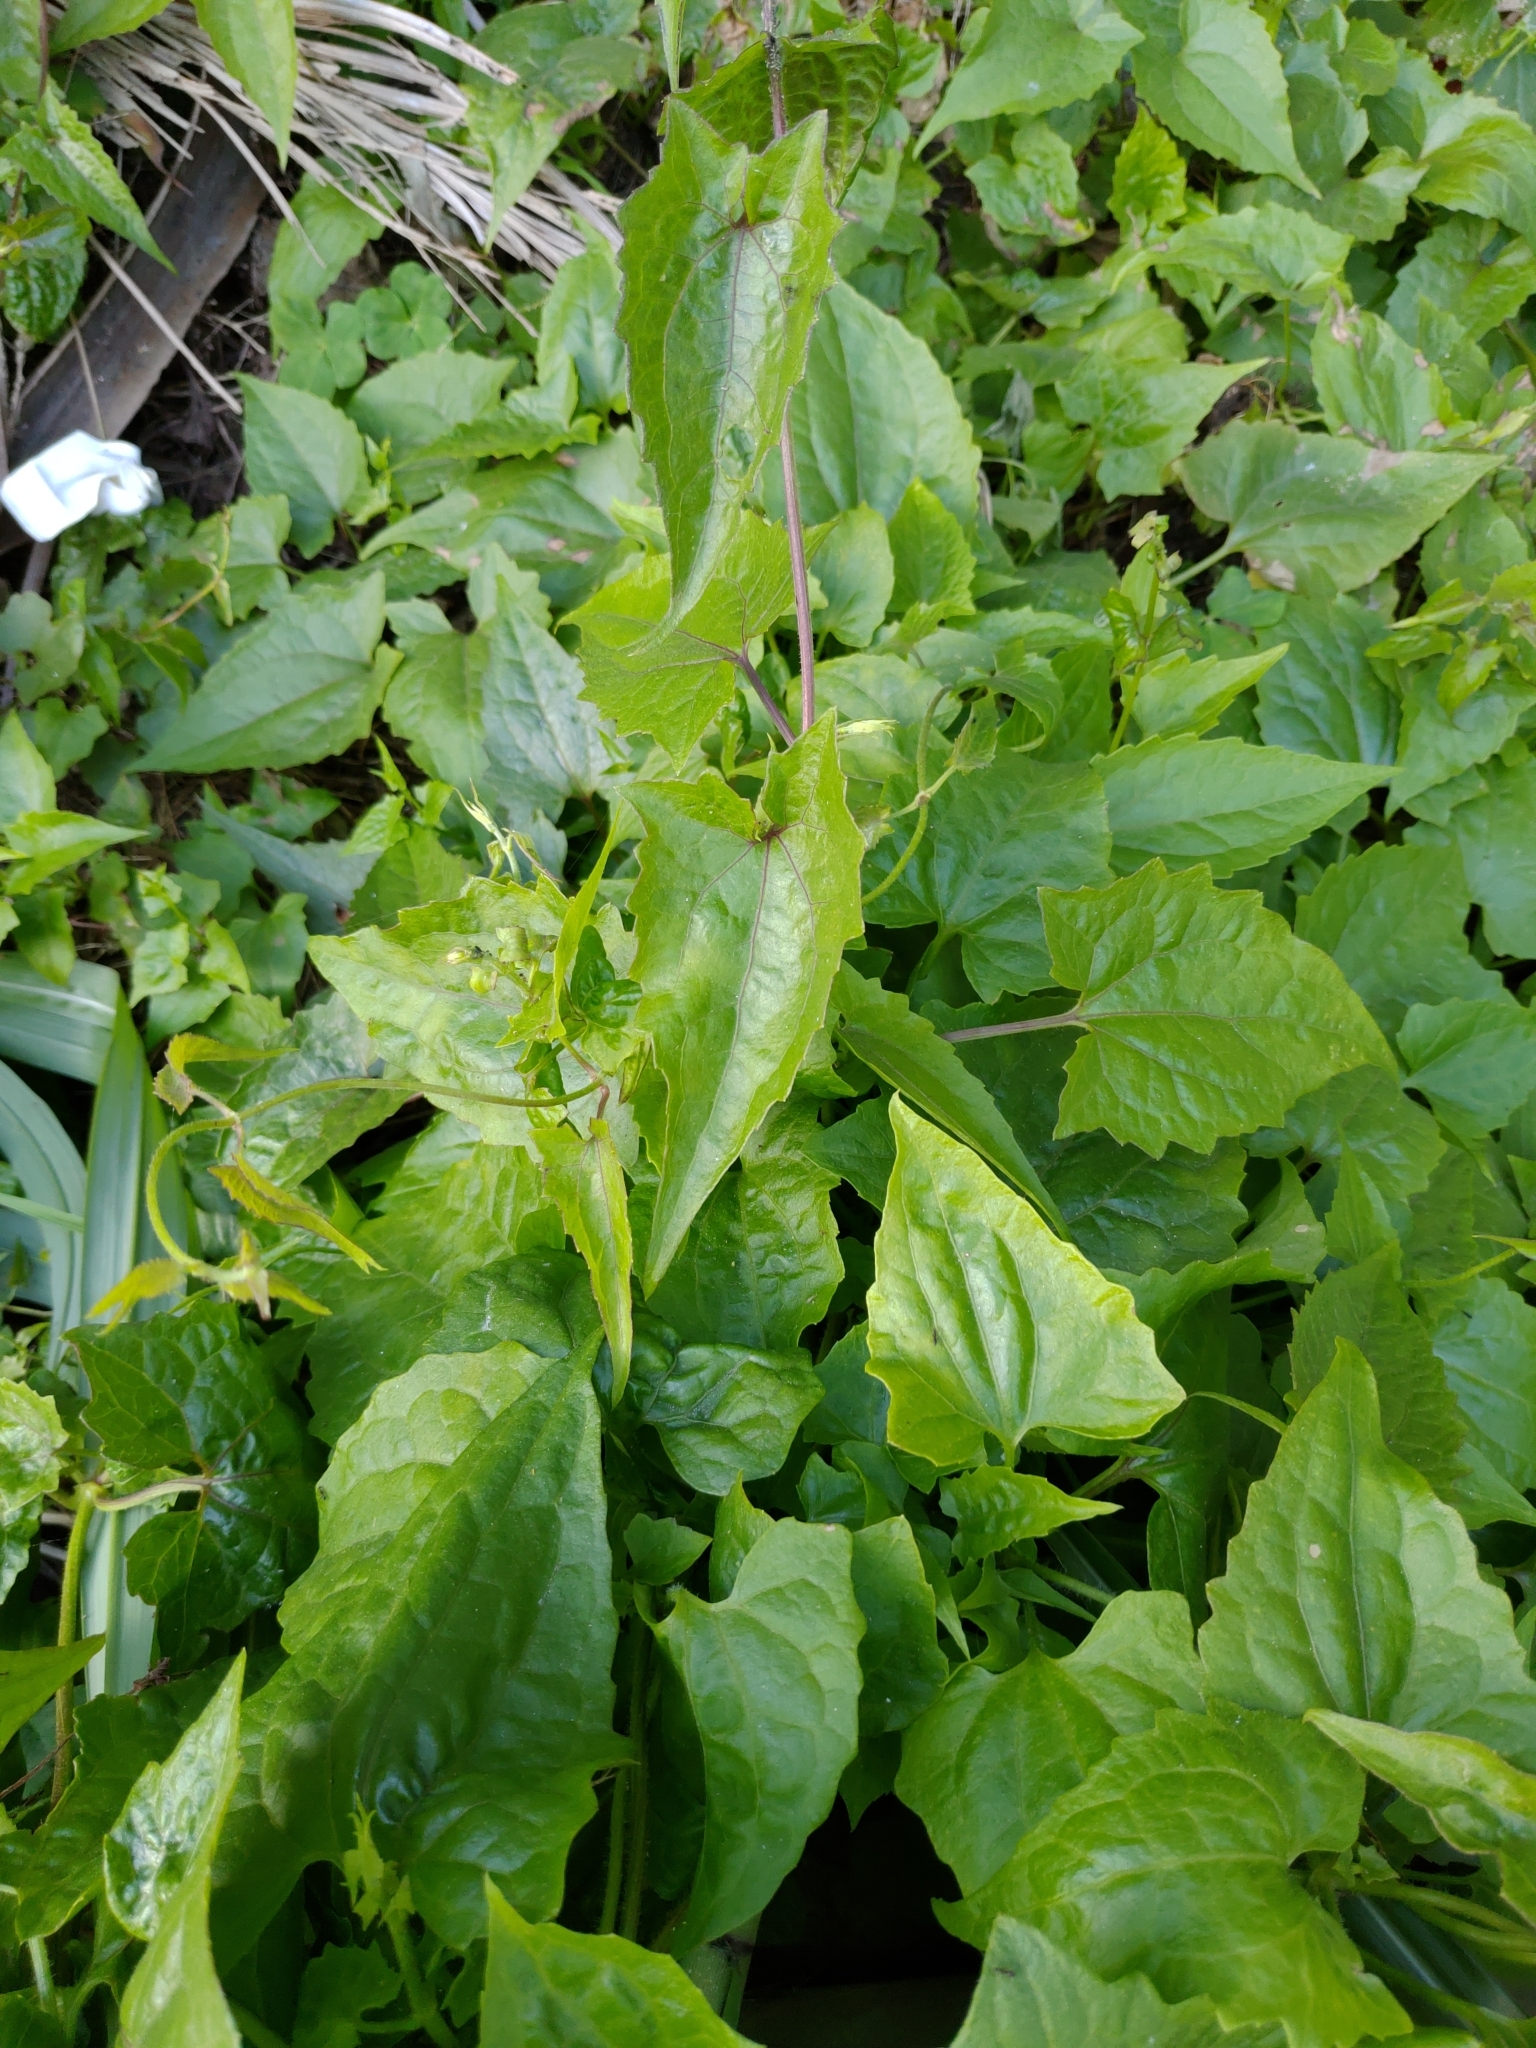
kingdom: Plantae
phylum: Tracheophyta
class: Magnoliopsida
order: Asterales
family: Asteraceae
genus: Mikania
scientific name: Mikania micrantha
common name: Mile-a-minute
